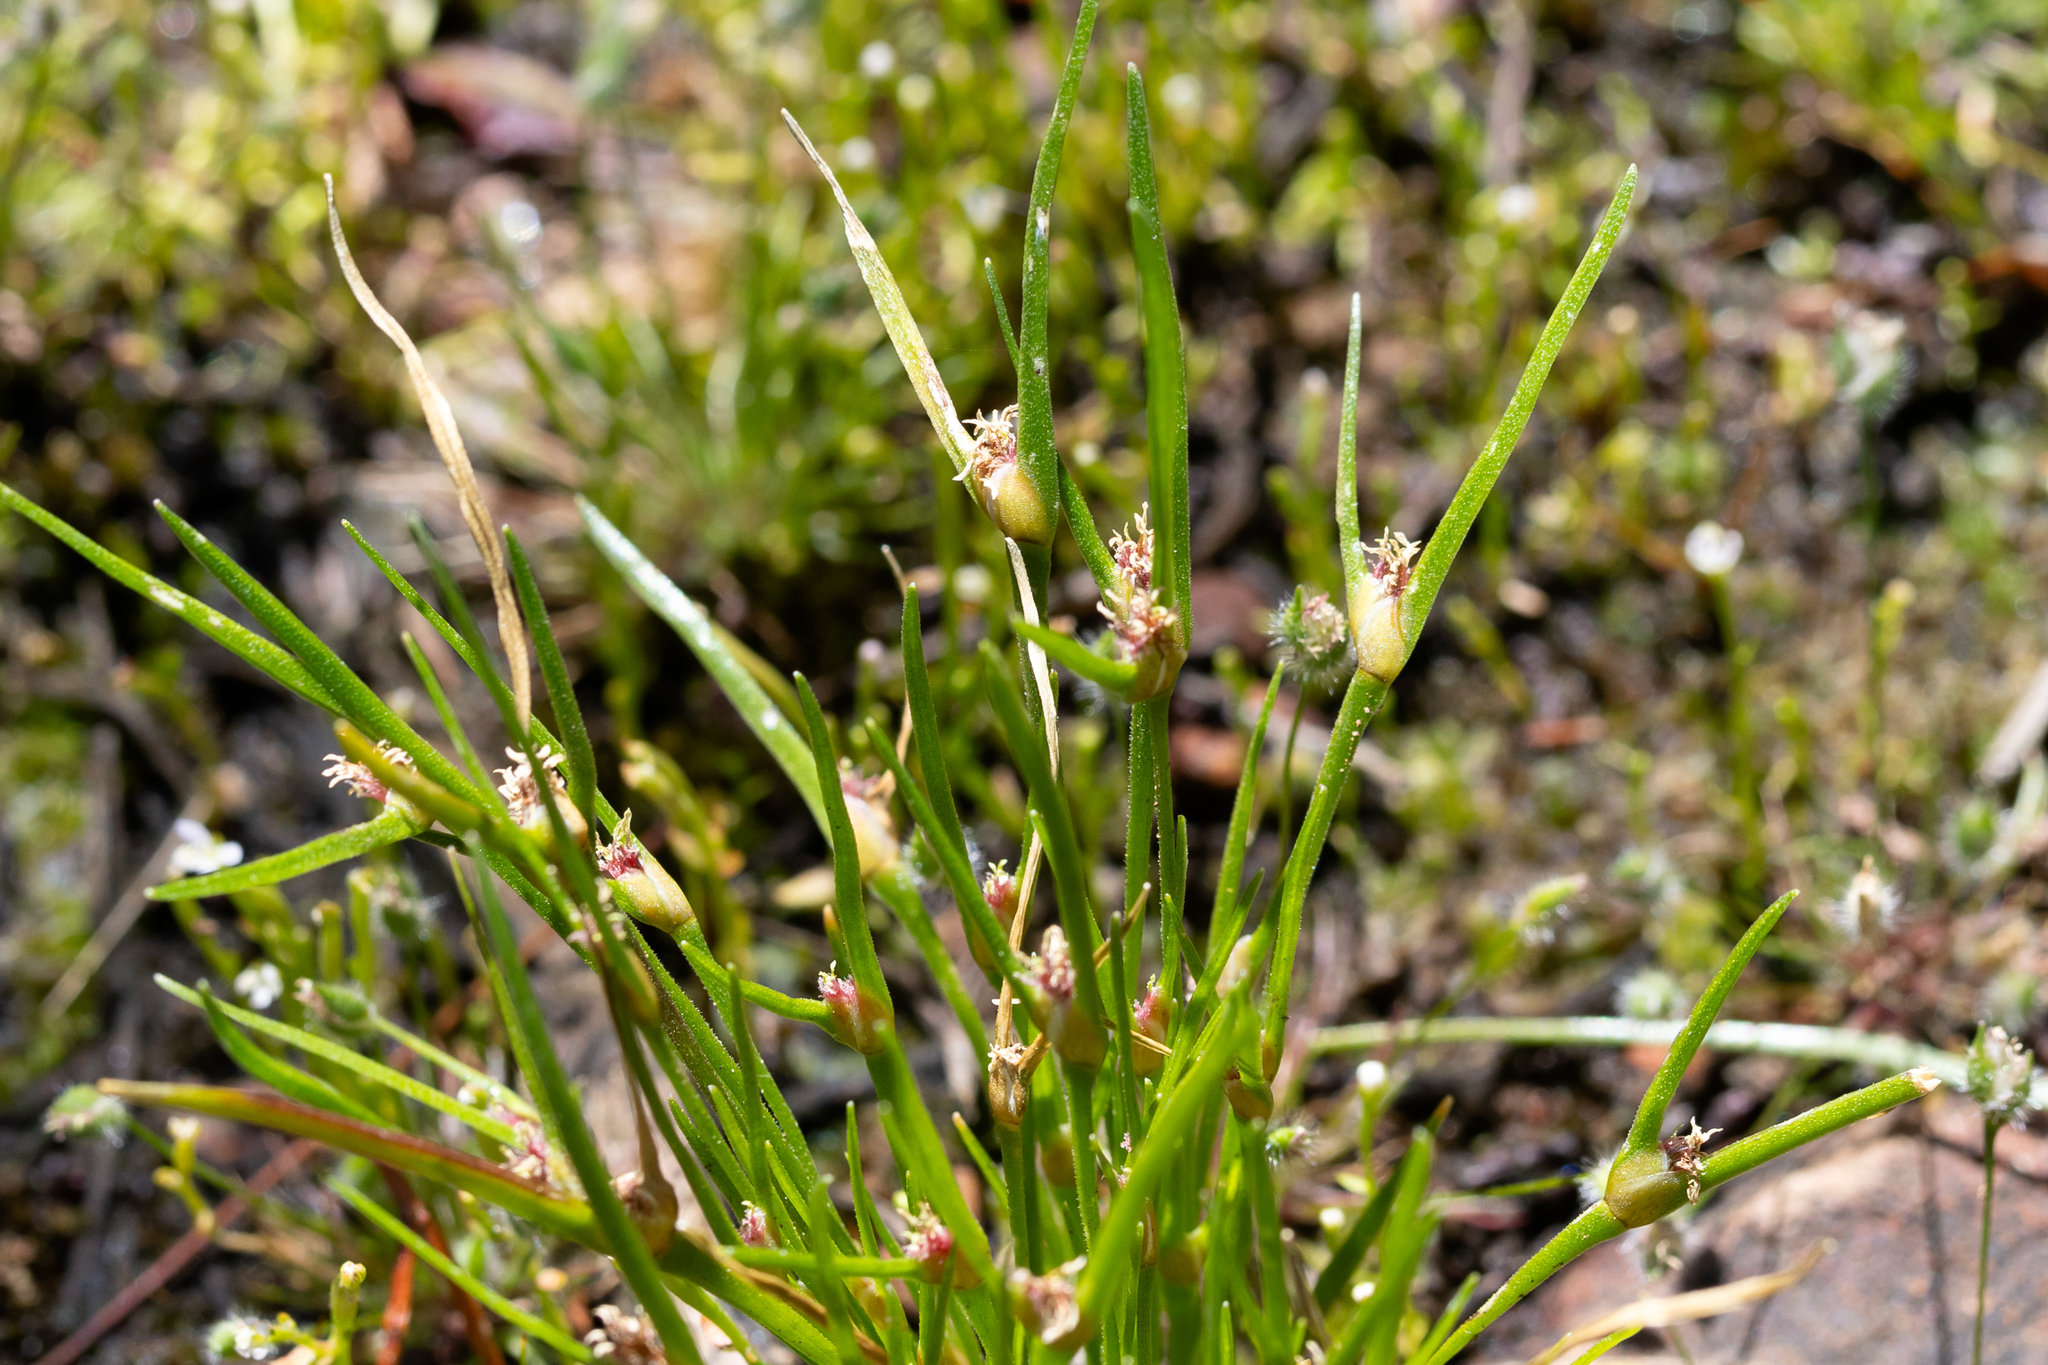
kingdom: Plantae
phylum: Tracheophyta
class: Liliopsida
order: Poales
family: Restionaceae
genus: Centrolepis
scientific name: Centrolepis aristata
